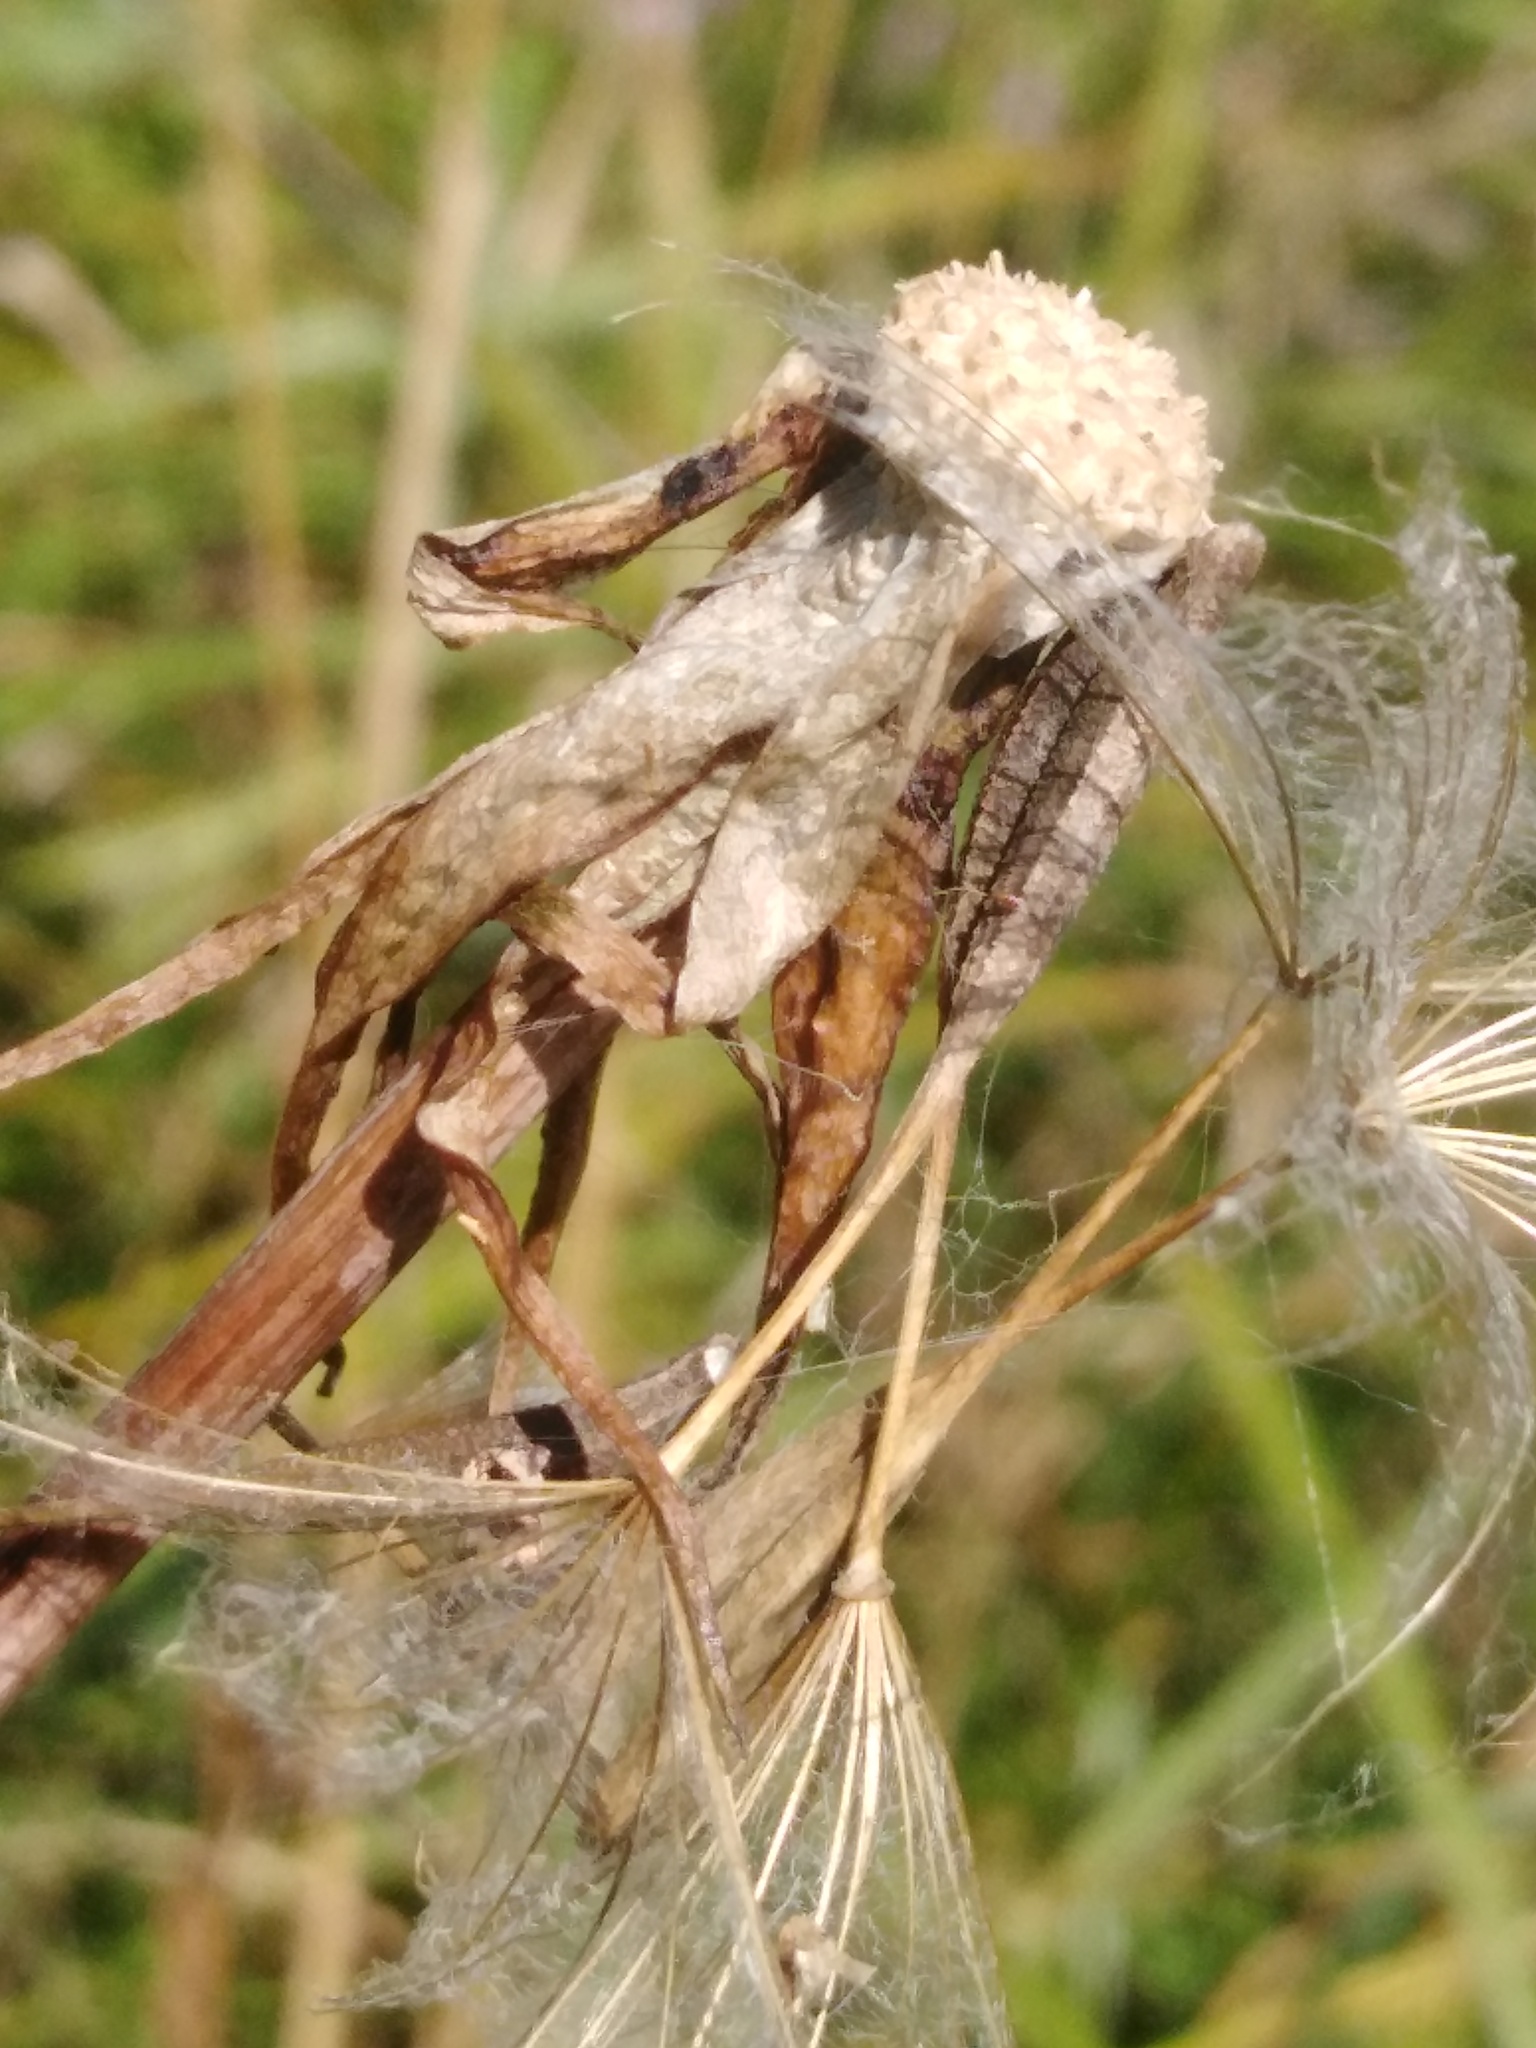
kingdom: Plantae
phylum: Tracheophyta
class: Magnoliopsida
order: Asterales
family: Asteraceae
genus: Tragopogon
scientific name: Tragopogon pratensis
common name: Goat's-beard
